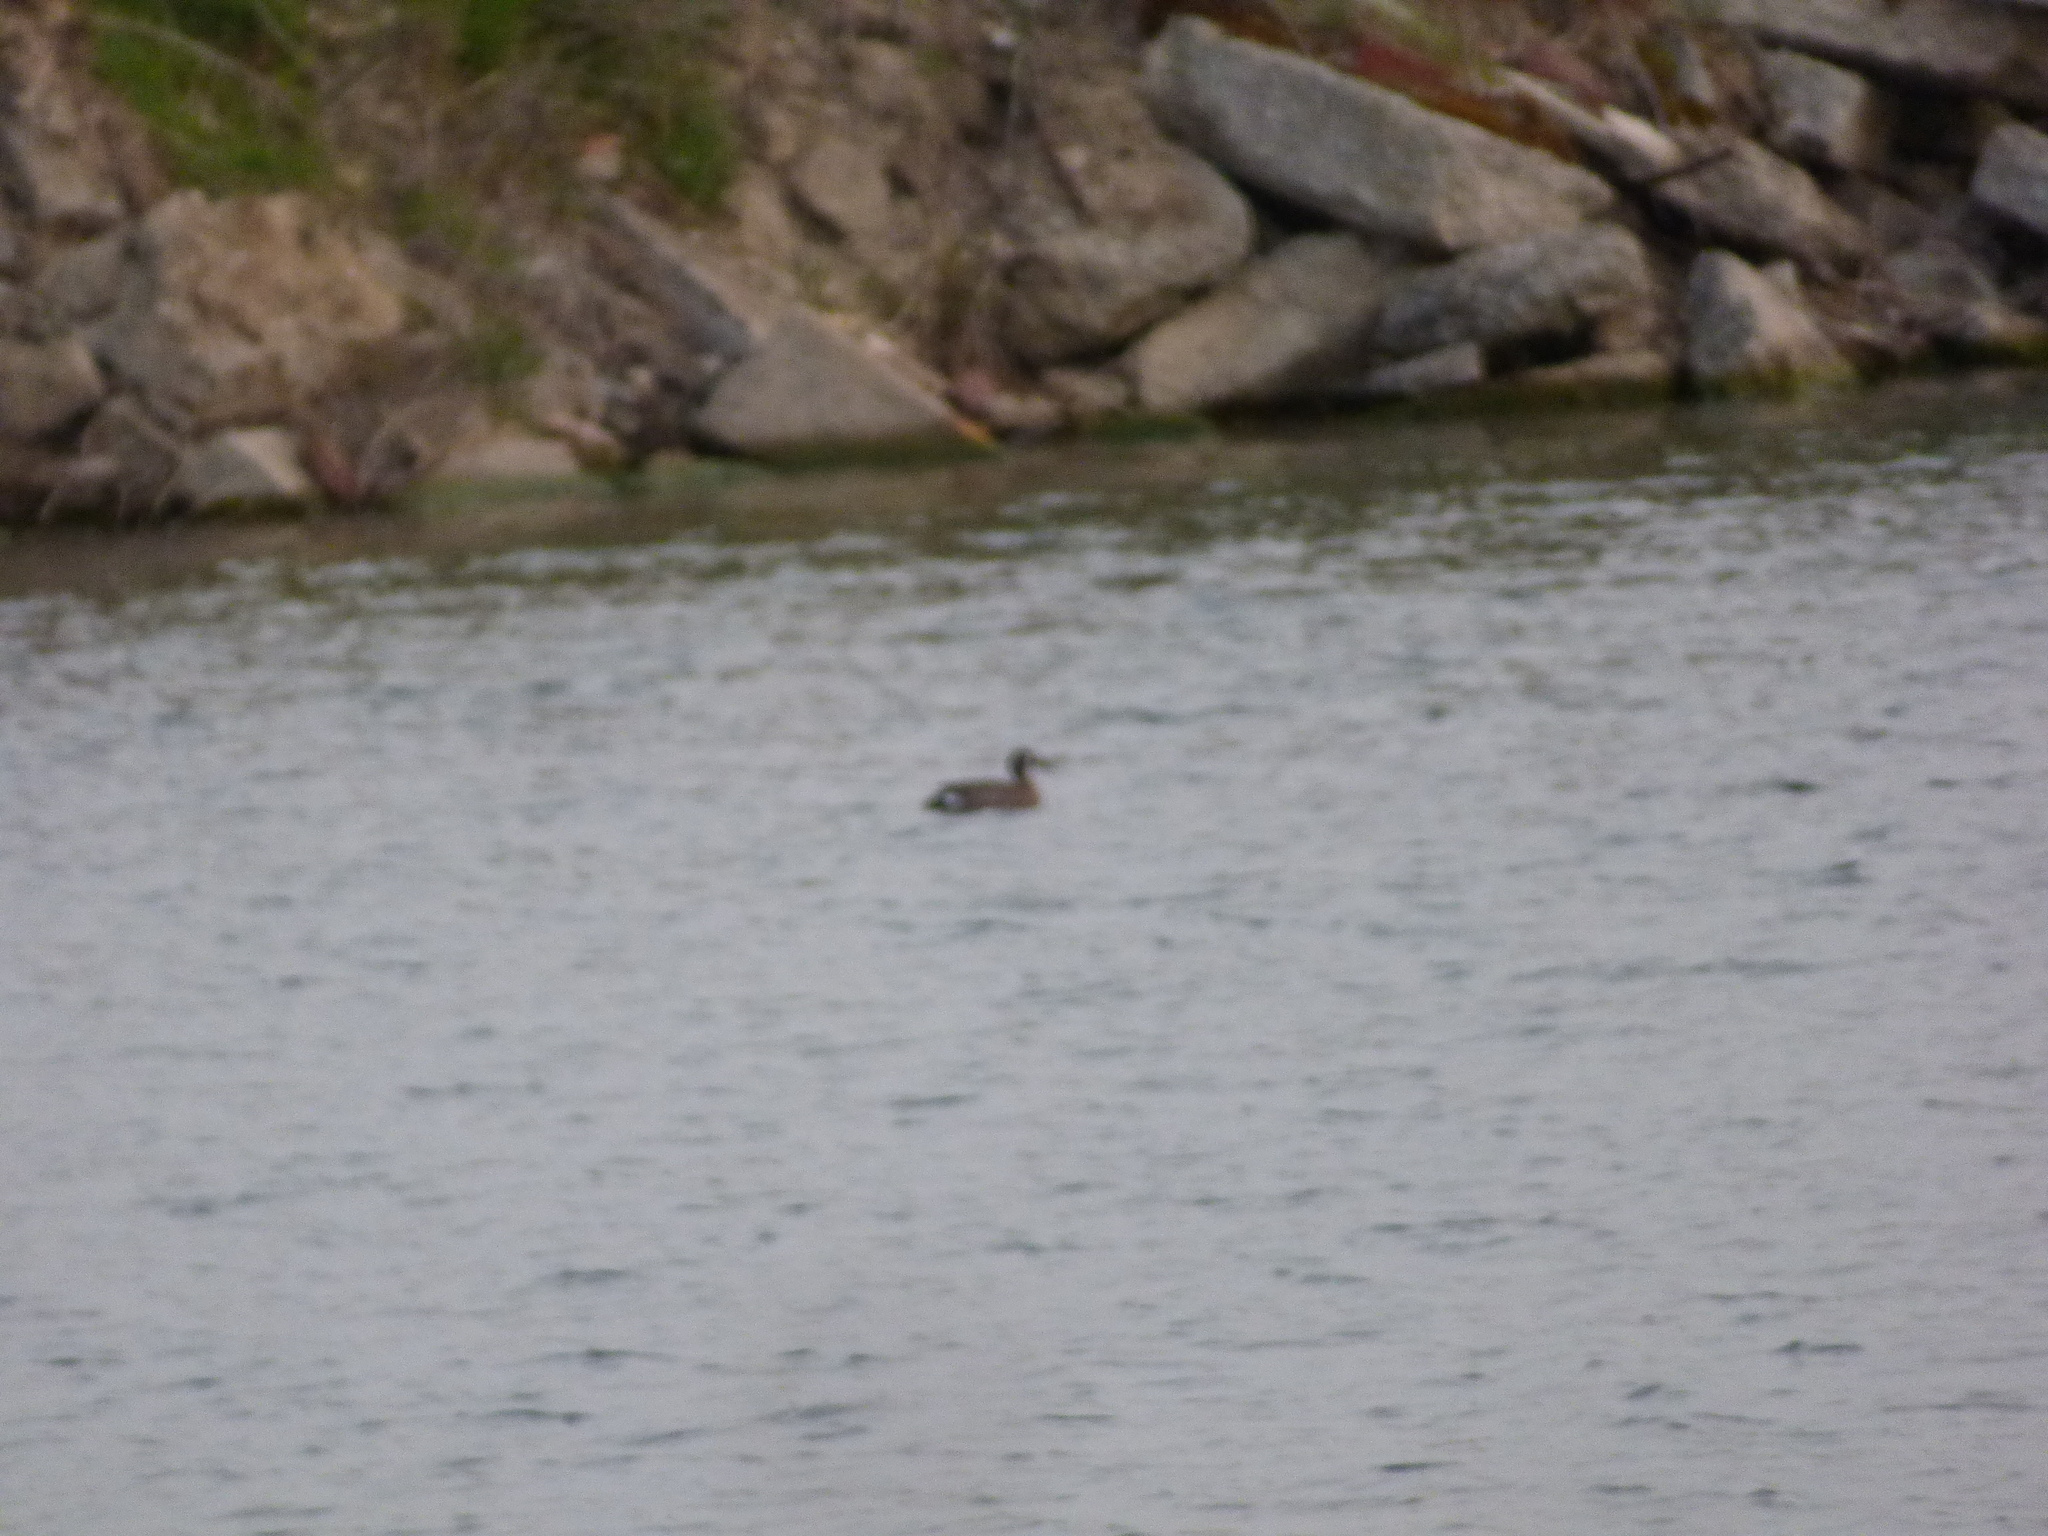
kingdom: Animalia
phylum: Chordata
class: Aves
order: Anseriformes
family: Anatidae
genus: Spatula
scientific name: Spatula discors
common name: Blue-winged teal
